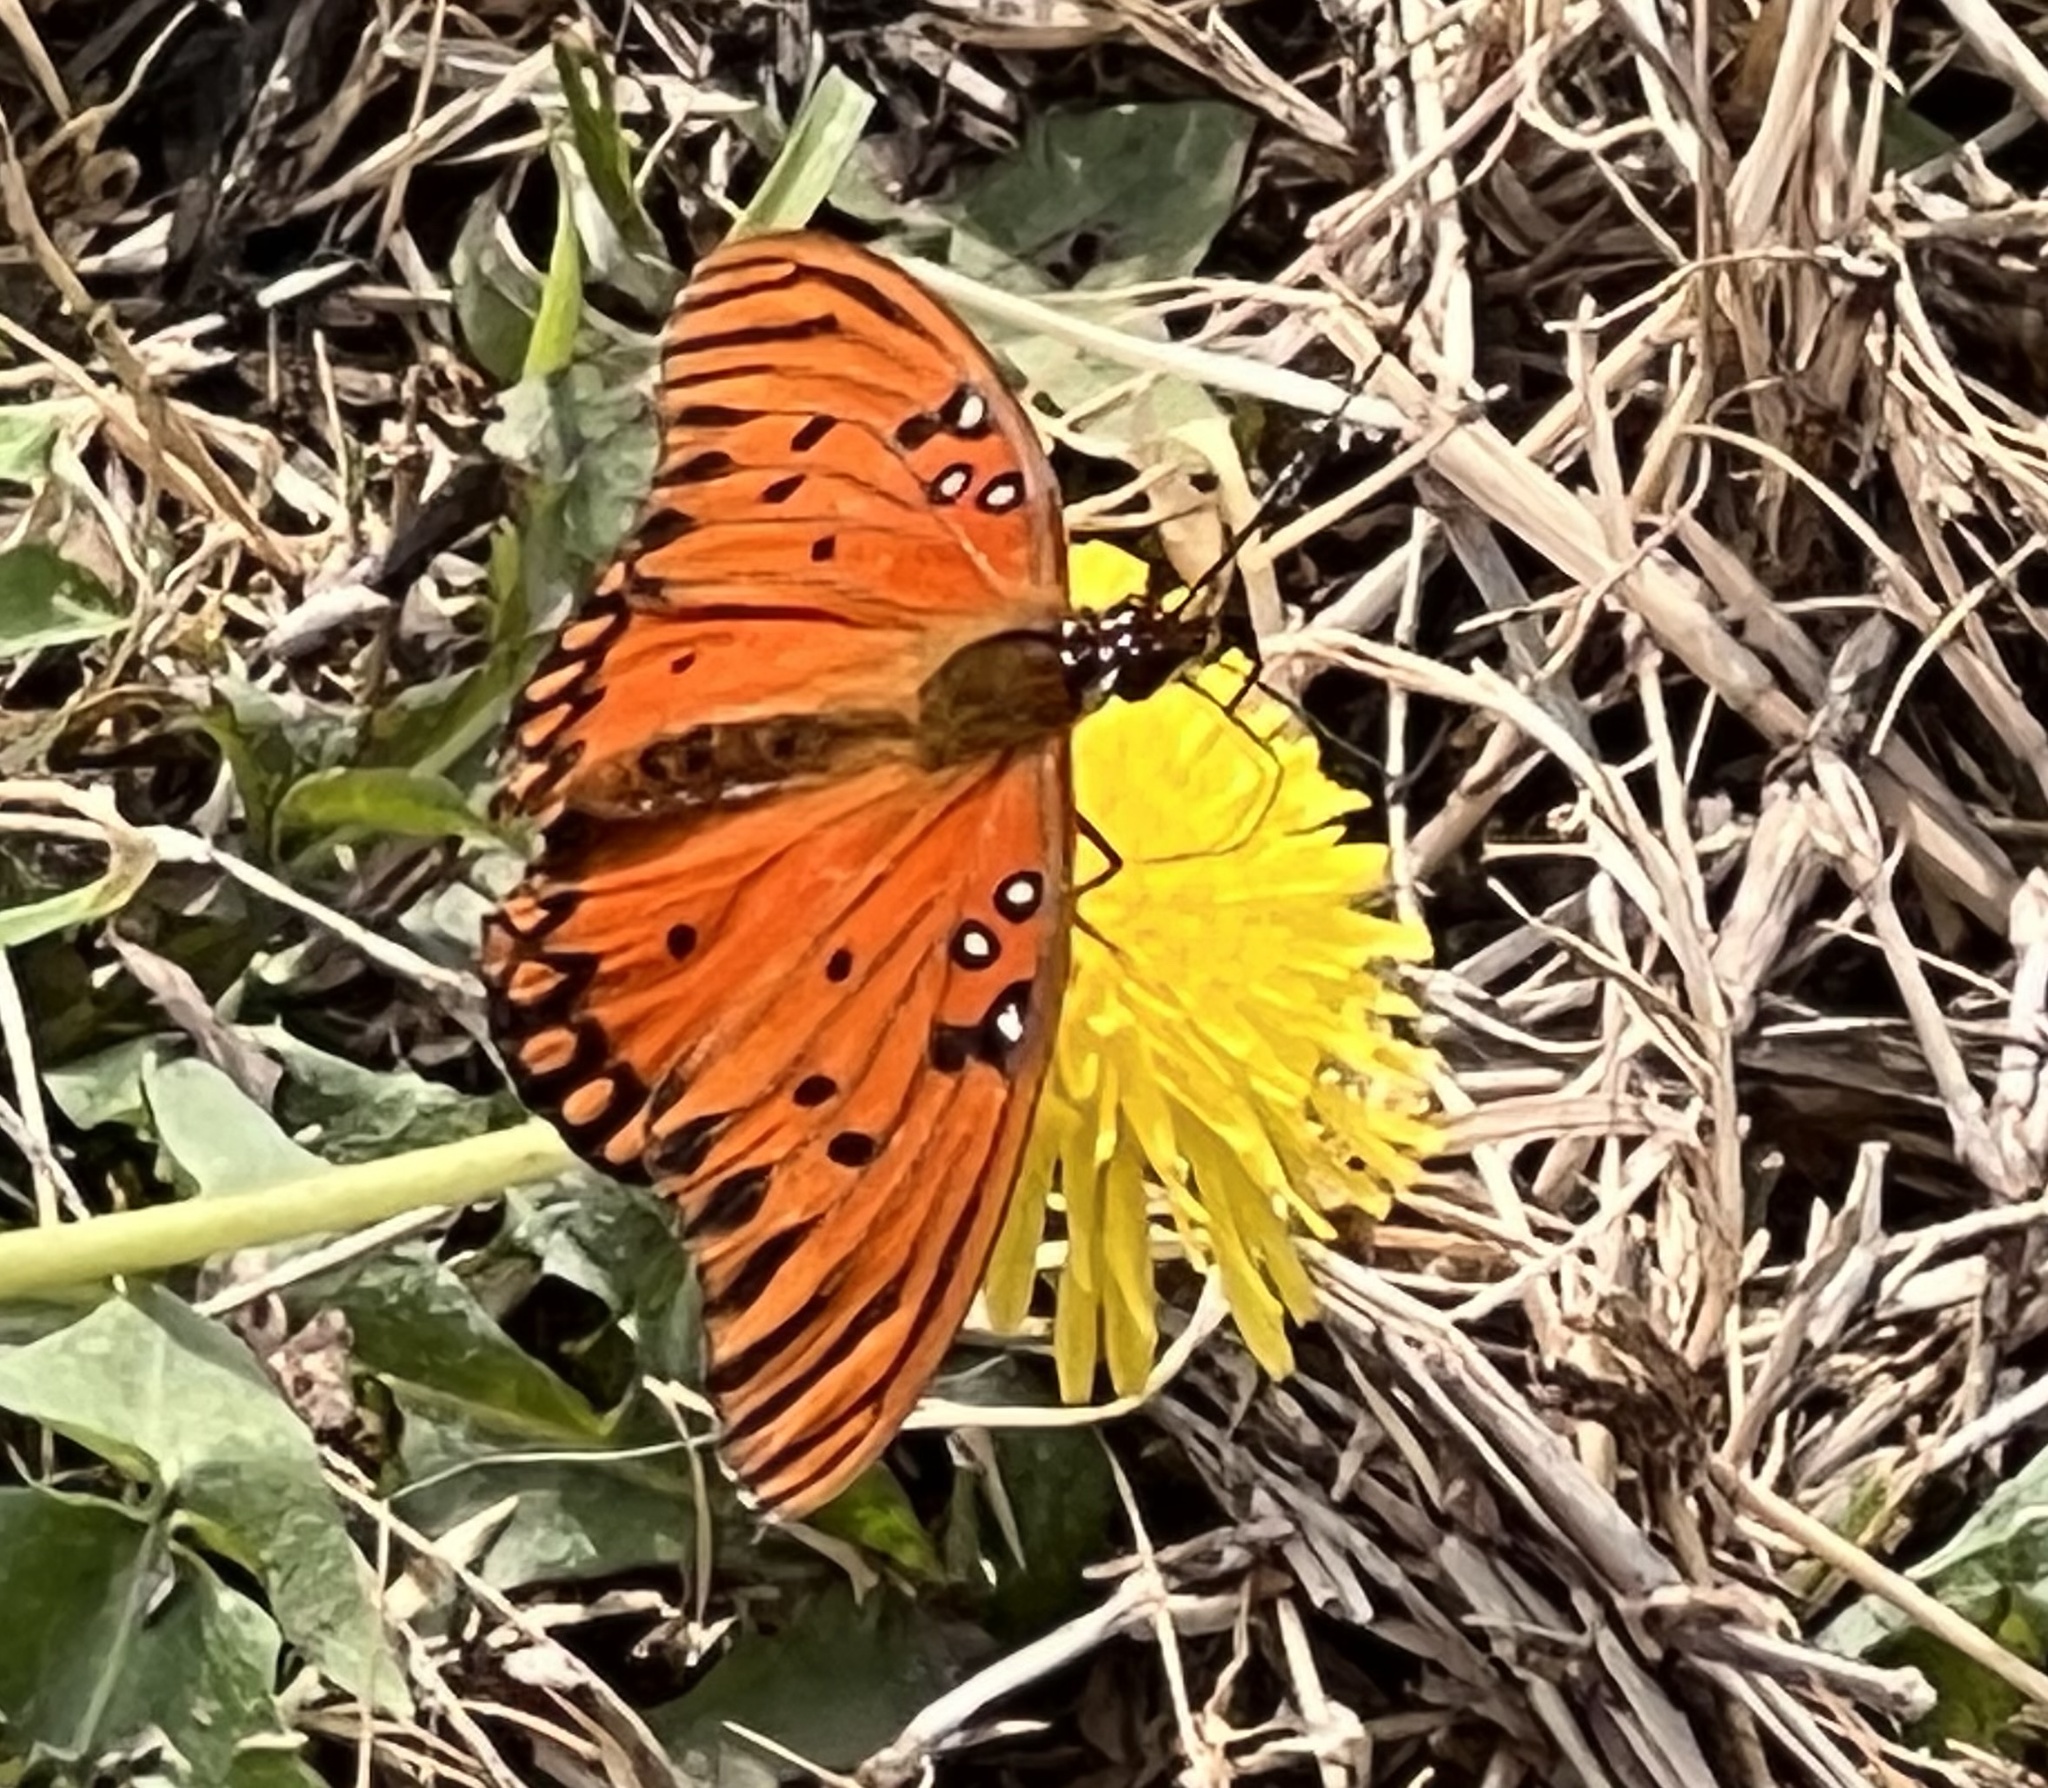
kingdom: Animalia
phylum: Arthropoda
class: Insecta
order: Lepidoptera
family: Nymphalidae
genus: Dione
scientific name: Dione vanillae
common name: Gulf fritillary
